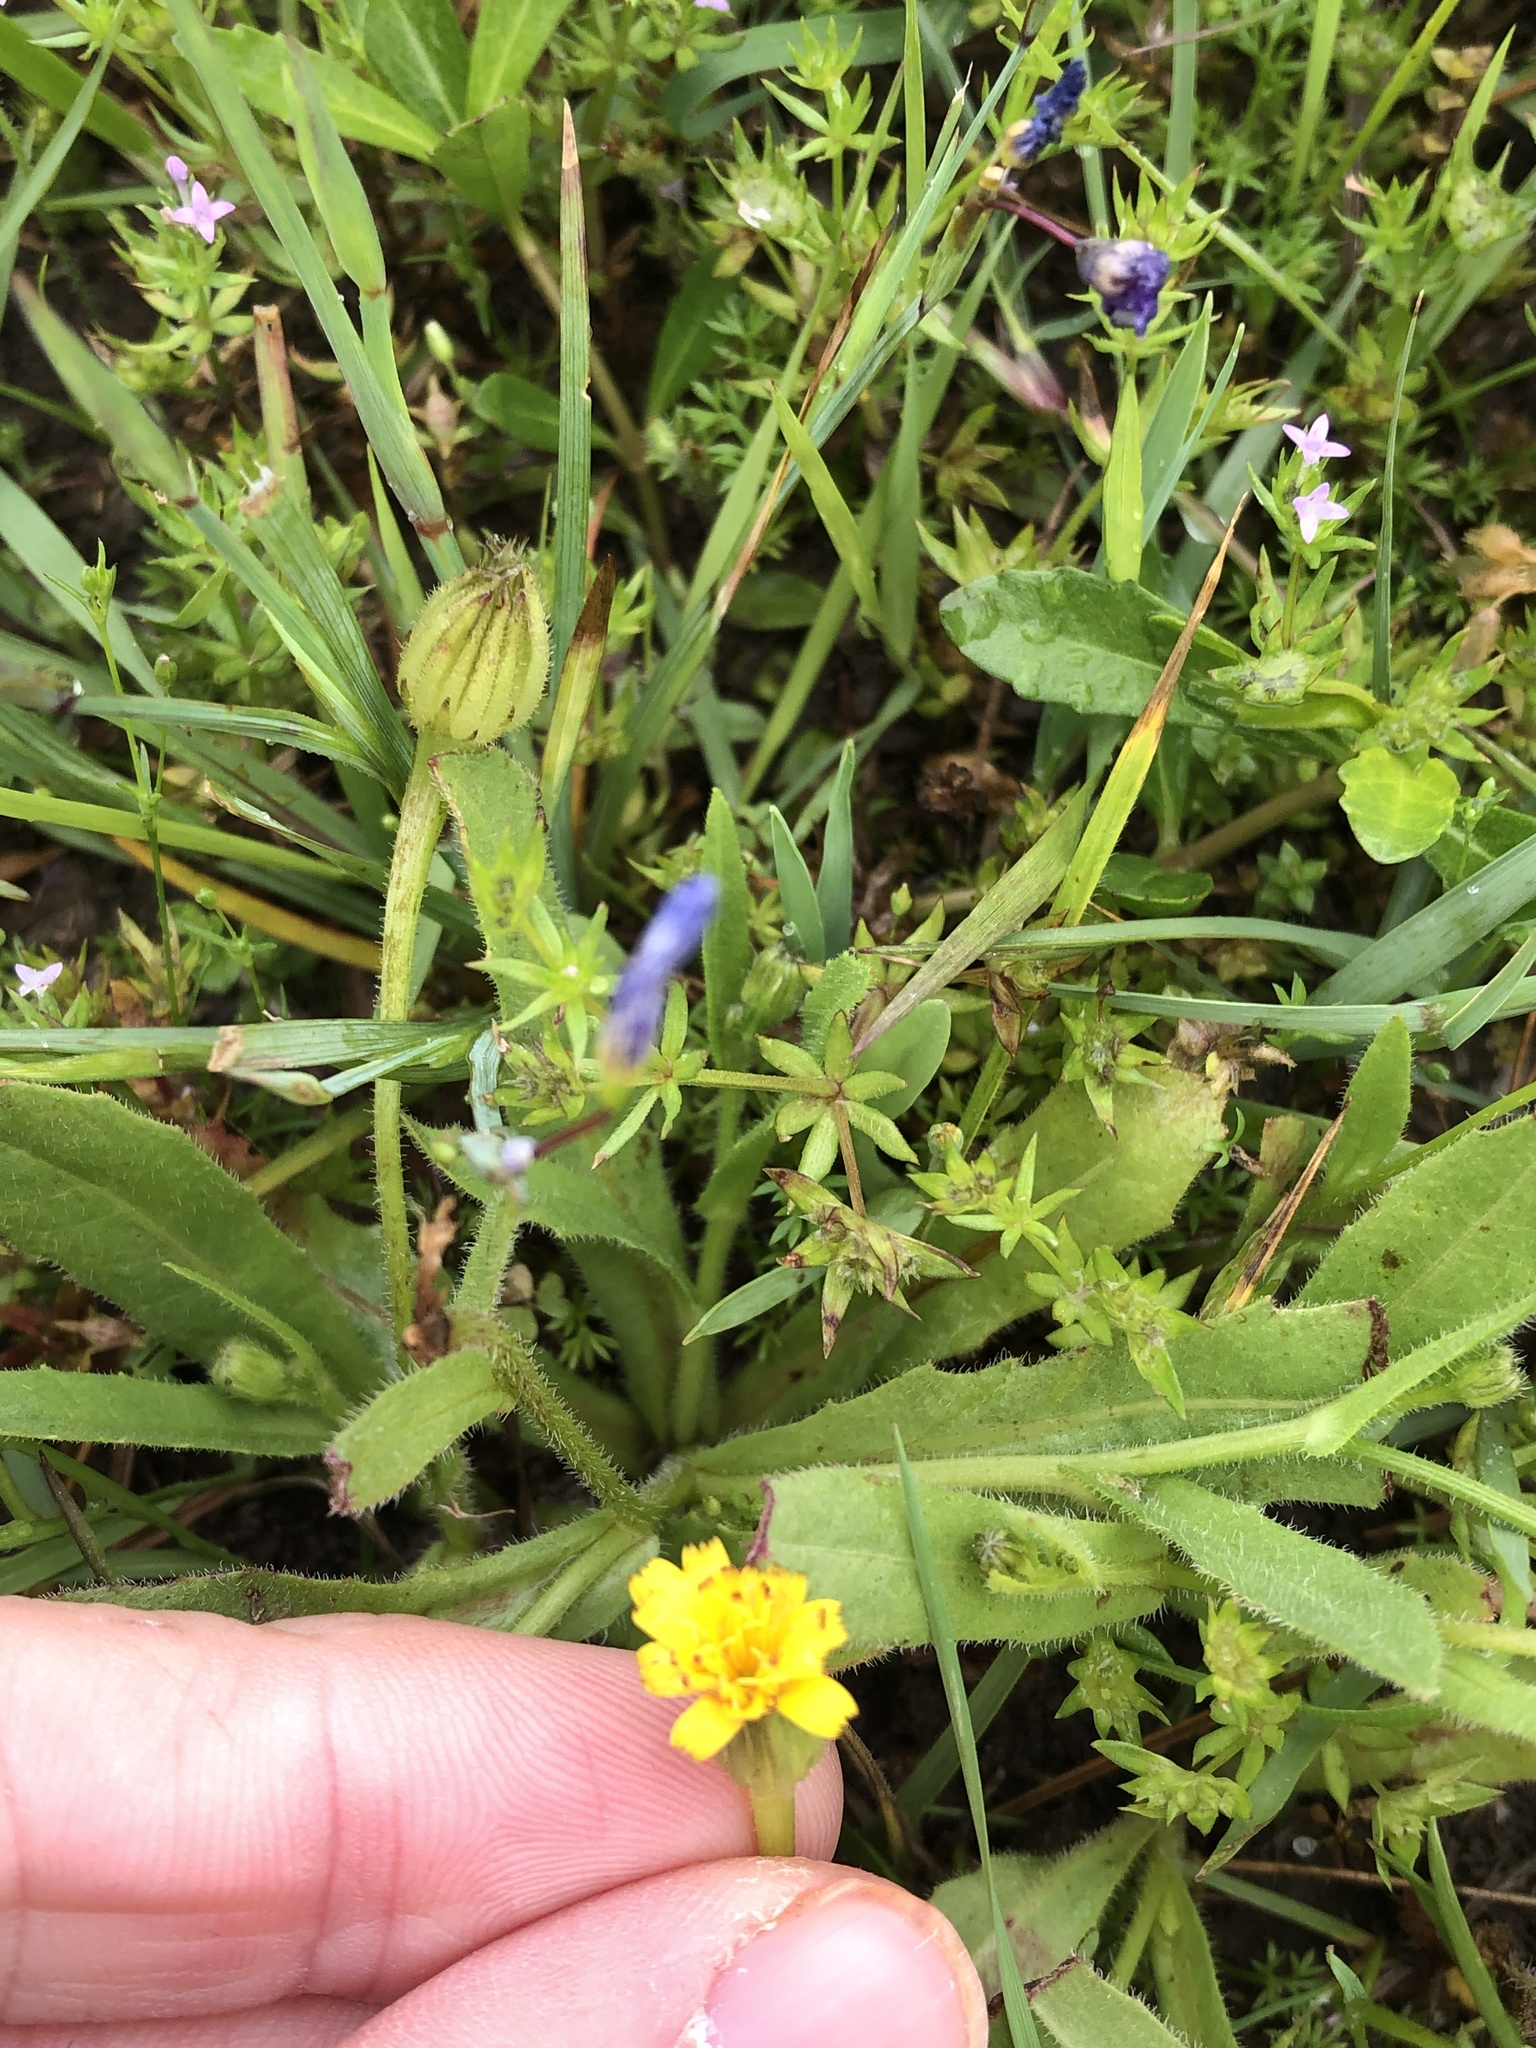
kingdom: Plantae
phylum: Tracheophyta
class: Magnoliopsida
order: Asterales
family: Asteraceae
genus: Hedypnois
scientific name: Hedypnois rhagadioloides
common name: Cretan weed
